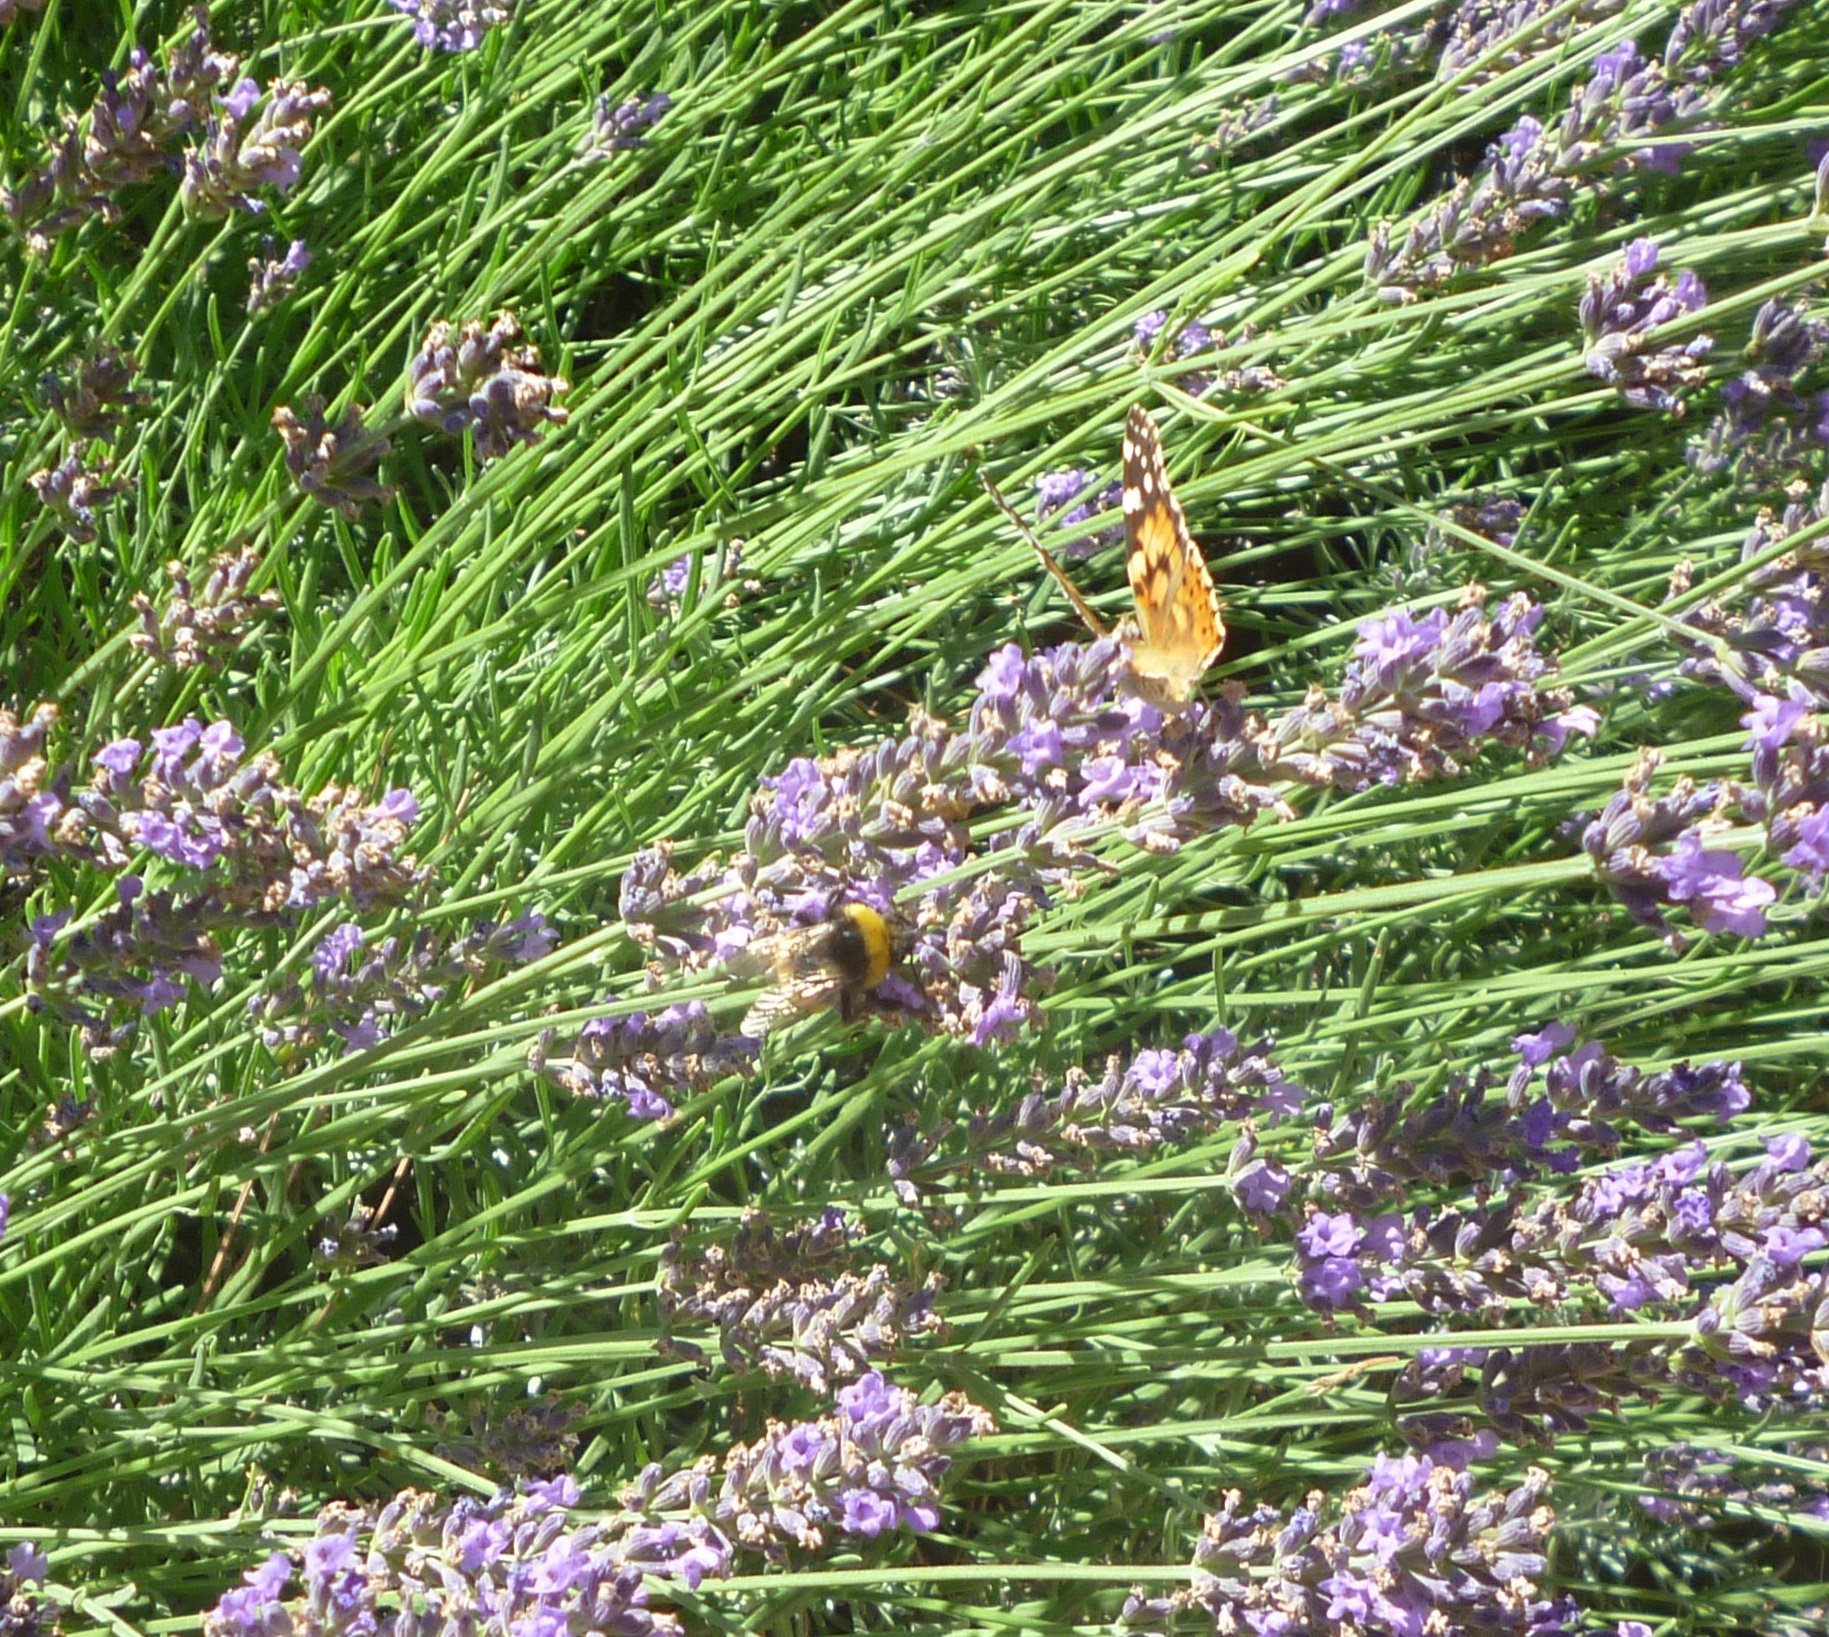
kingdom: Animalia
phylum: Arthropoda
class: Insecta
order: Lepidoptera
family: Nymphalidae
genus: Vanessa
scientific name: Vanessa cardui
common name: Painted lady
